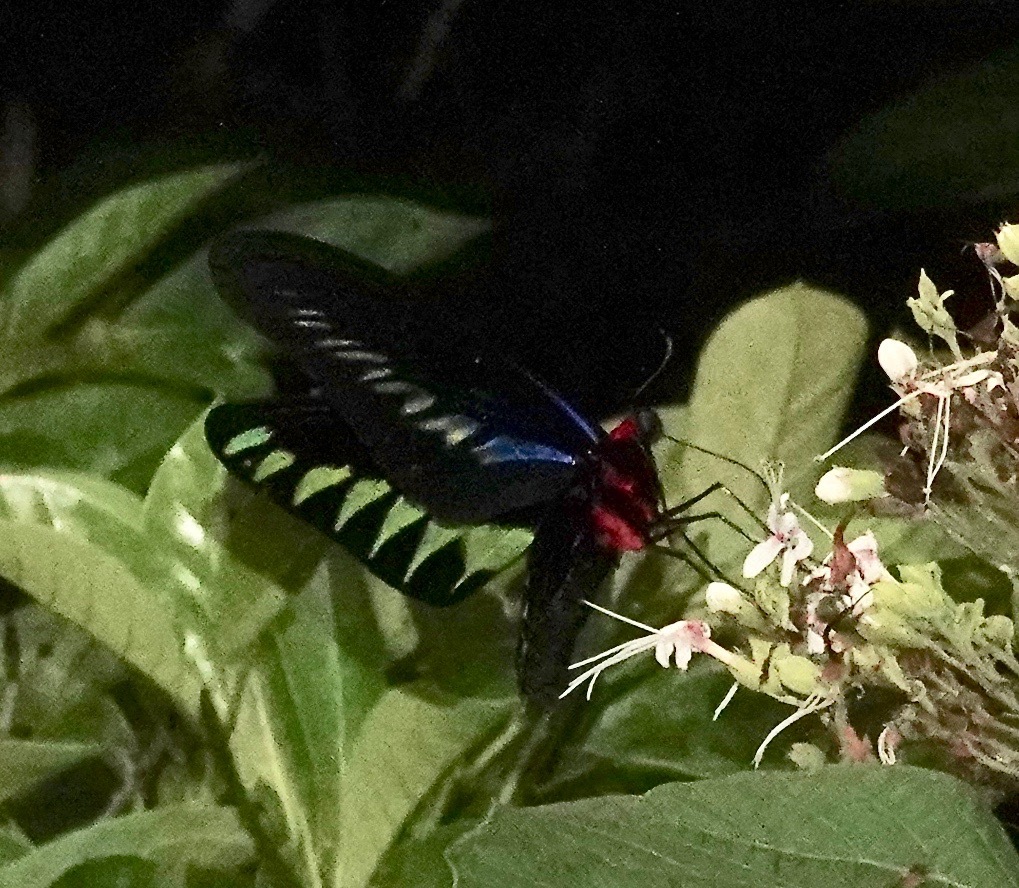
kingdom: Animalia
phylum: Arthropoda
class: Insecta
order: Lepidoptera
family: Papilionidae
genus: Trogonoptera
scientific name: Trogonoptera brookiana
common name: Raja brooke's birdwing
